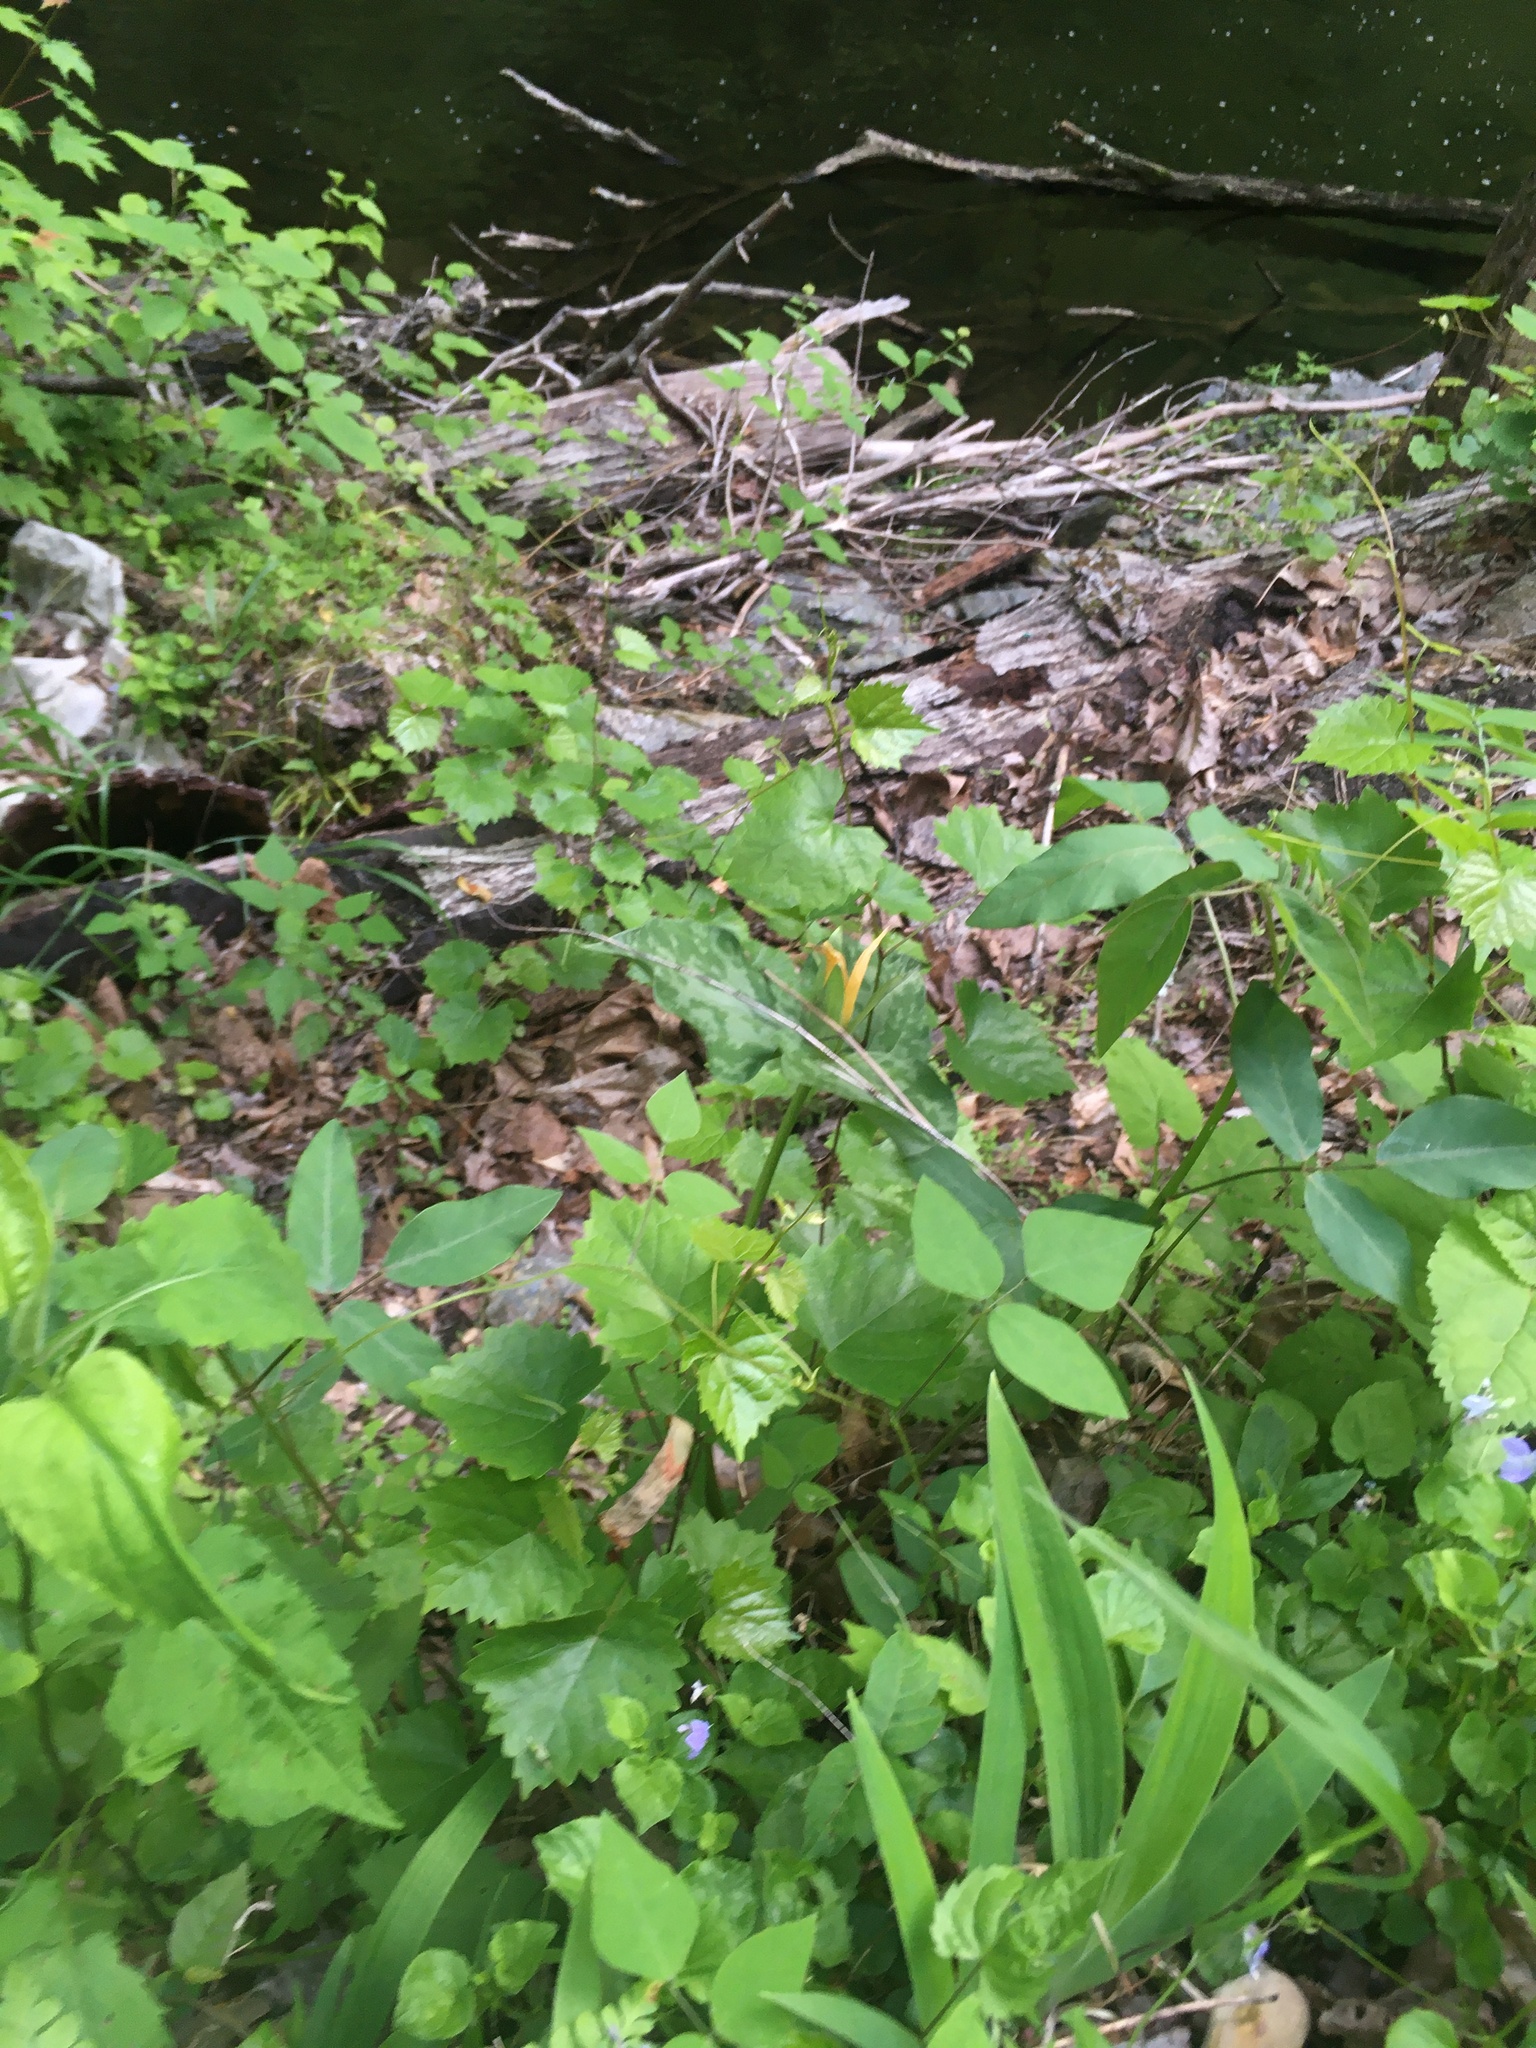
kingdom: Plantae
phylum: Tracheophyta
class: Liliopsida
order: Liliales
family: Melanthiaceae
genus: Trillium
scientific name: Trillium luteum
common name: Wax trillium
